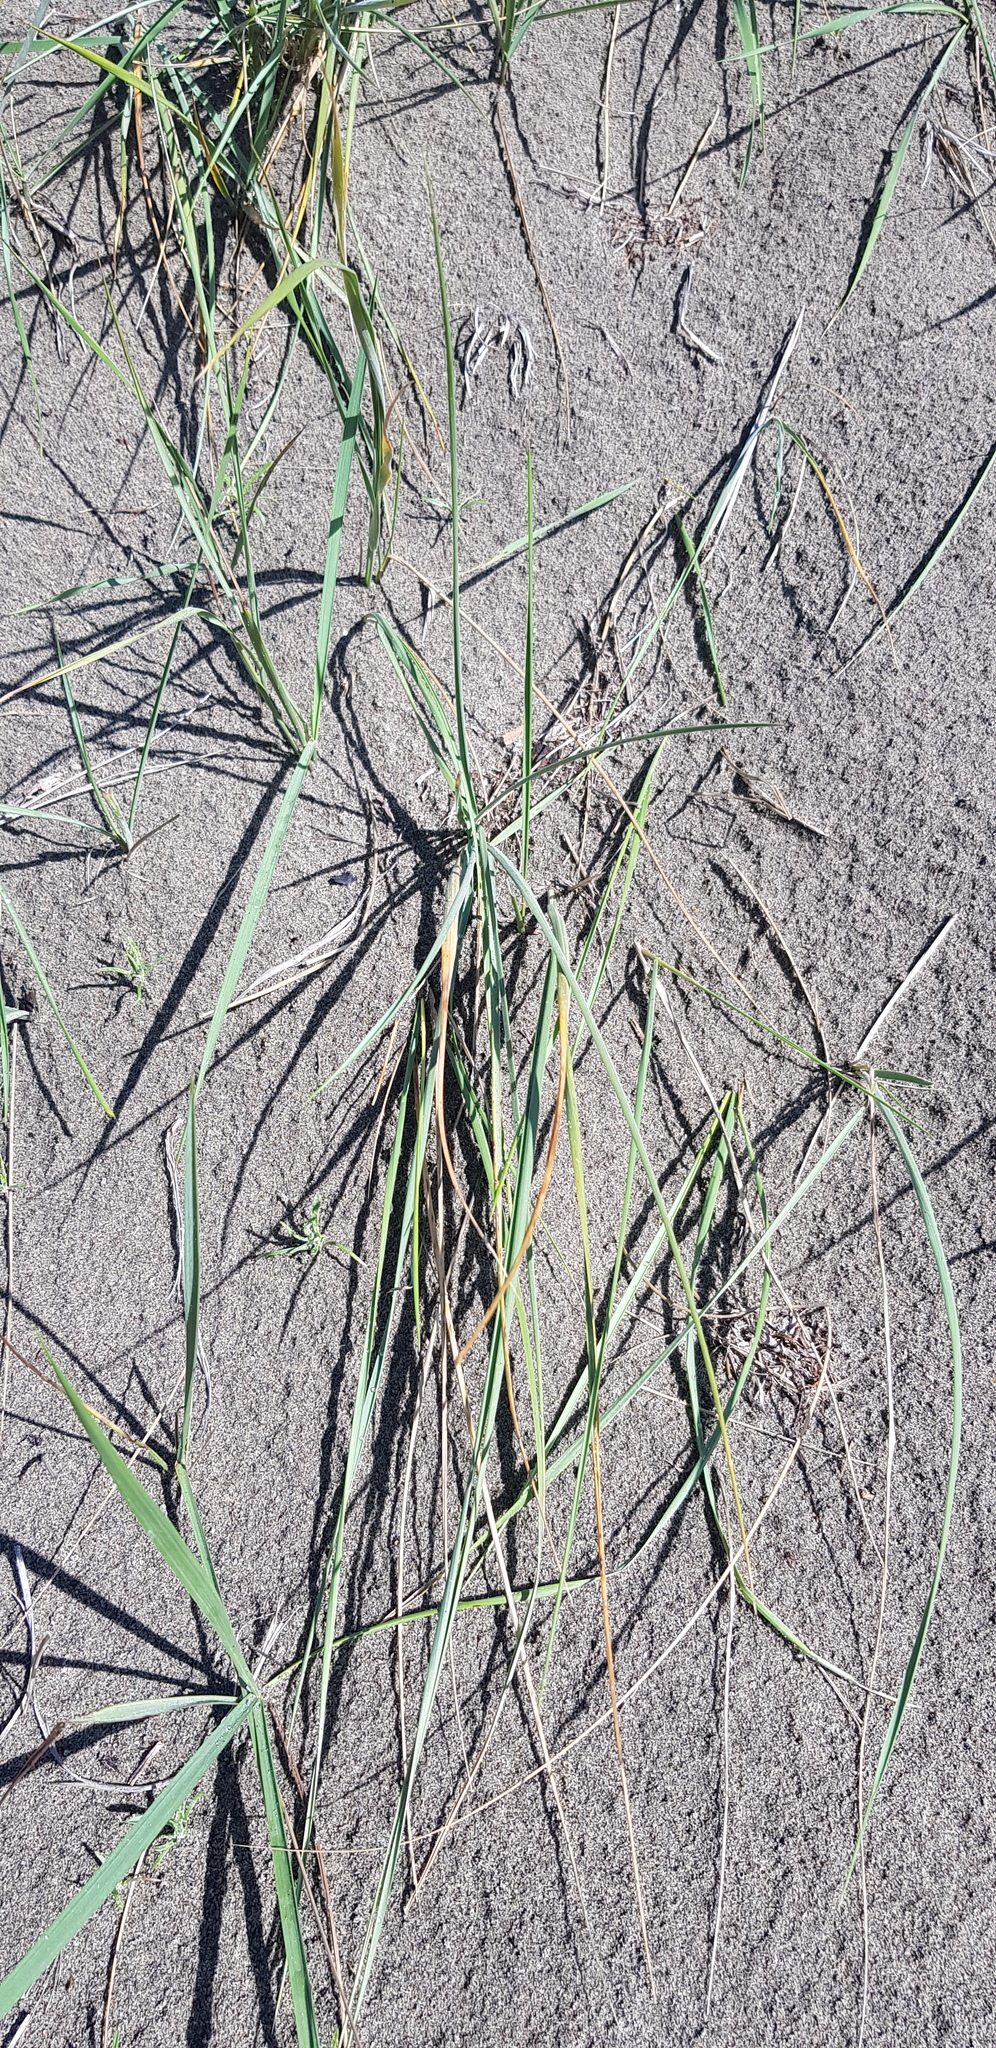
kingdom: Plantae
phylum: Tracheophyta
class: Liliopsida
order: Poales
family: Poaceae
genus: Leymus
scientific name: Leymus chinensis
